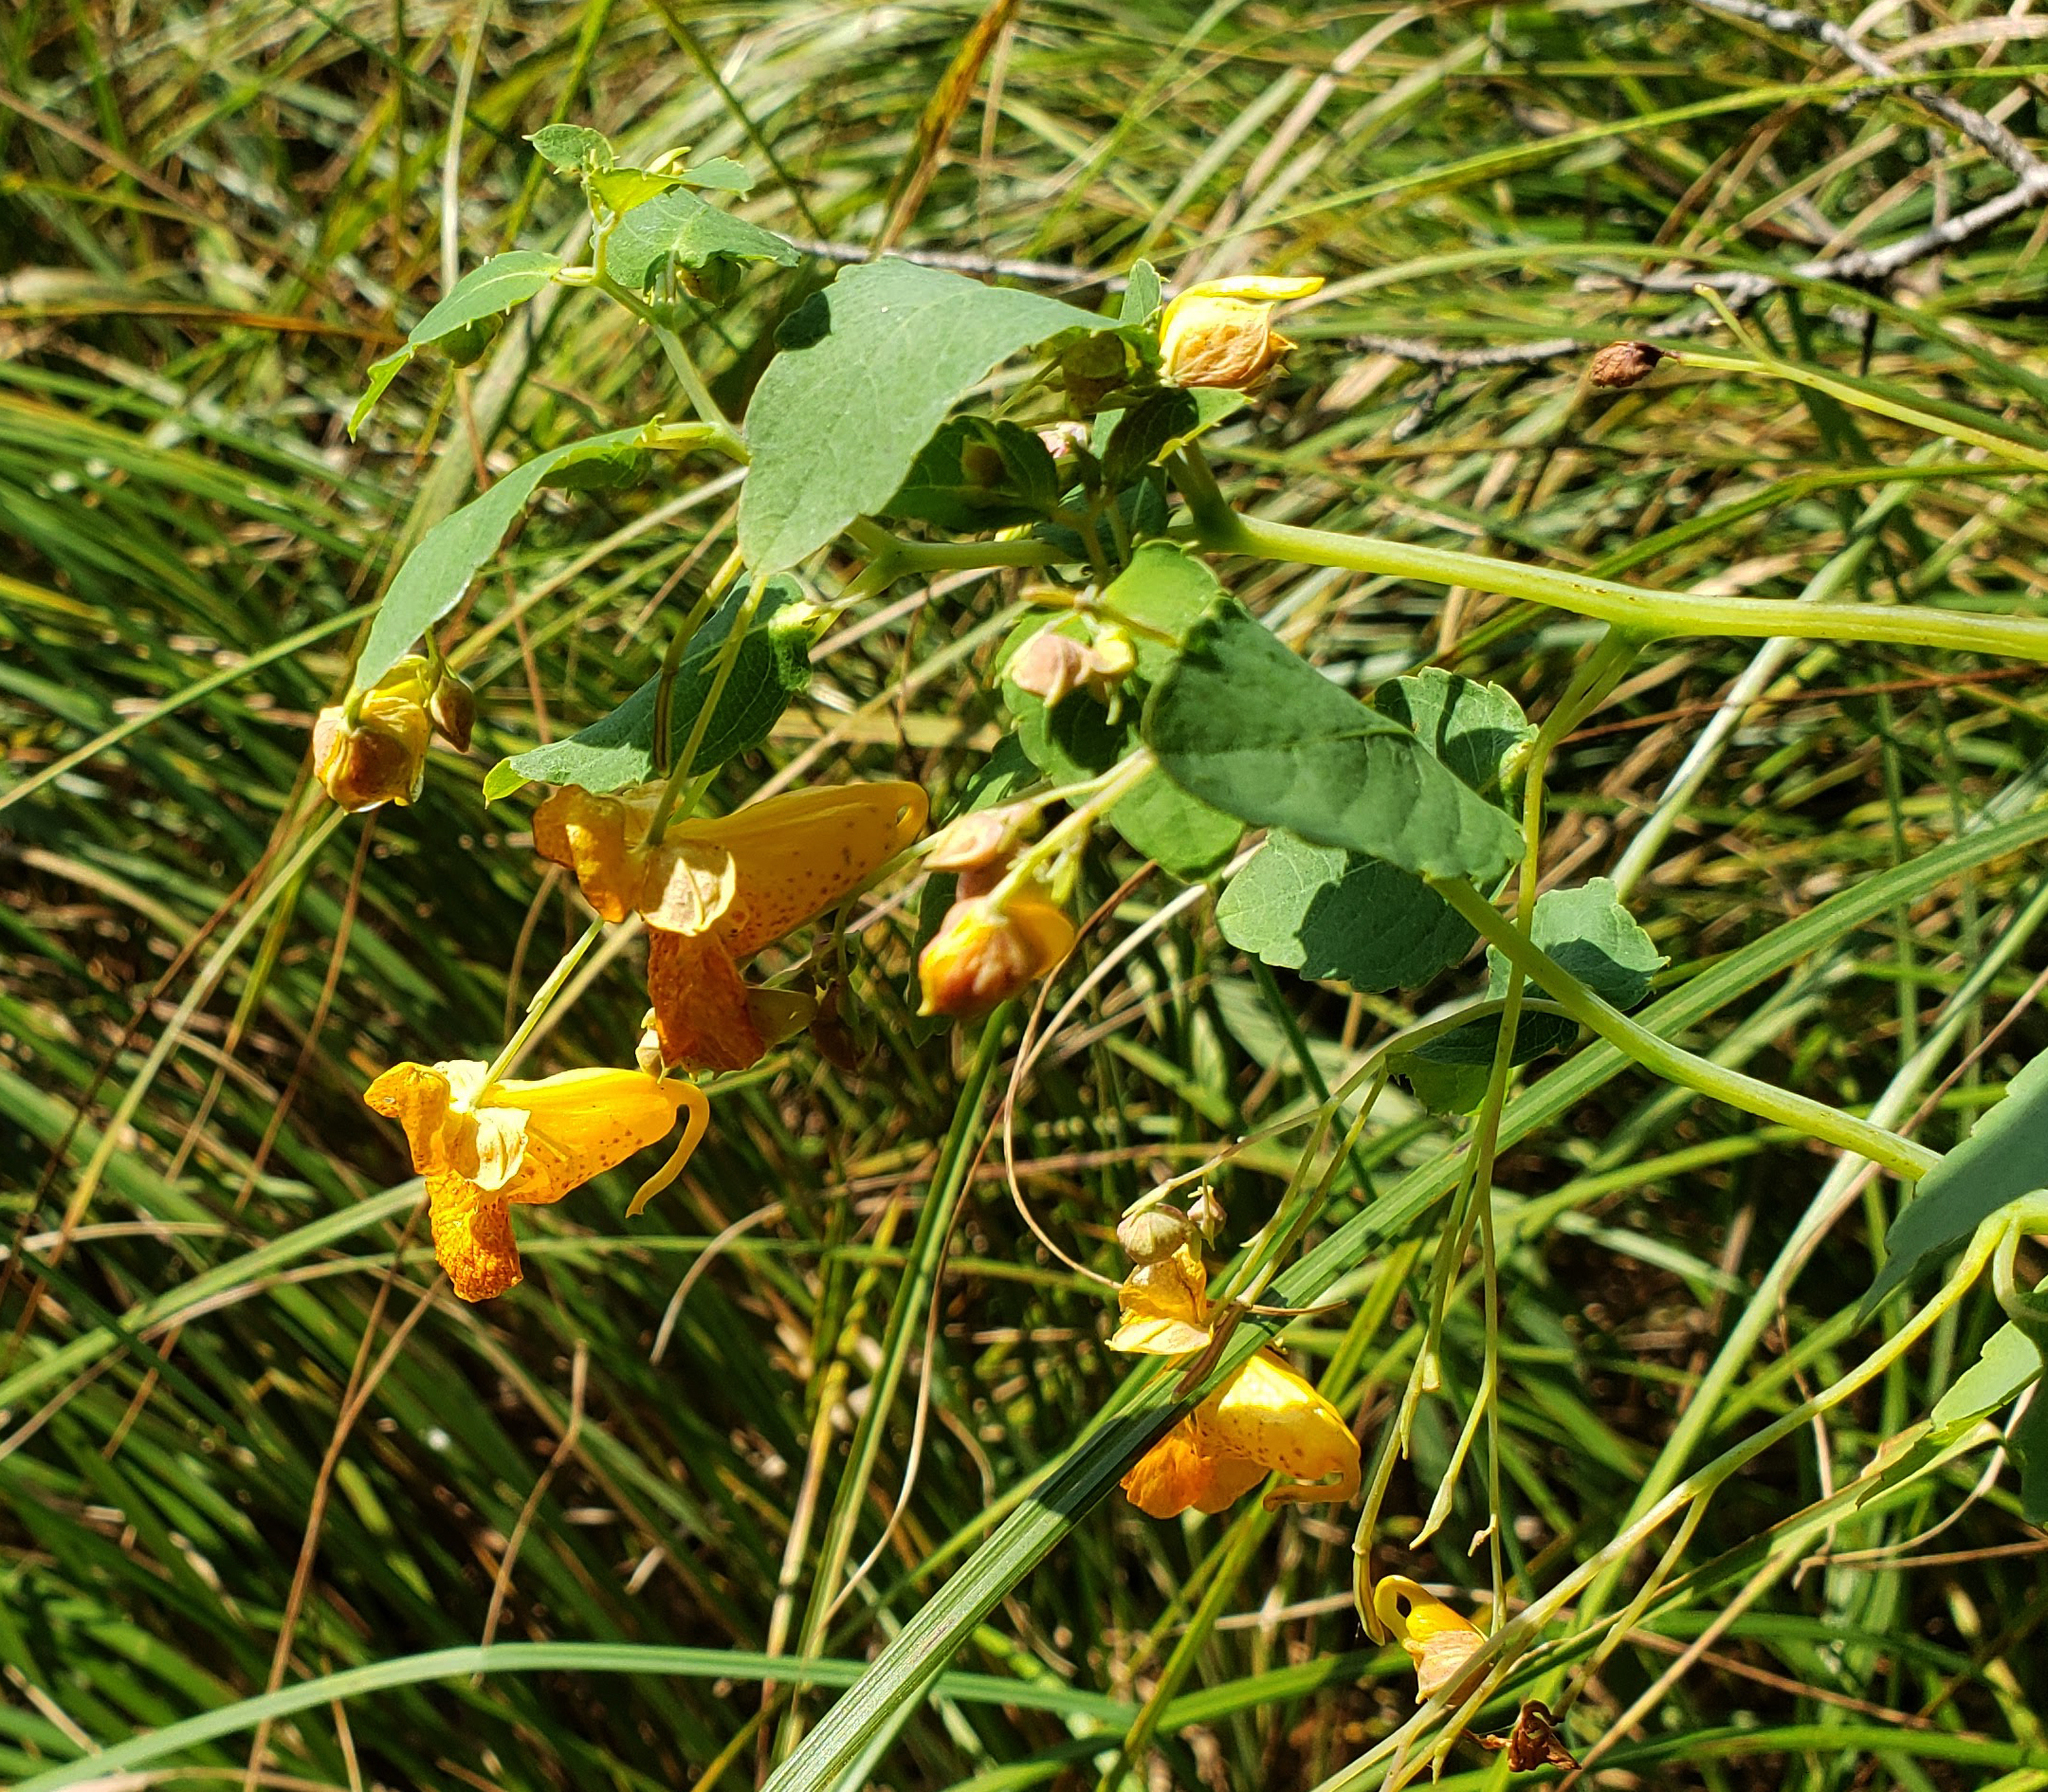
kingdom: Plantae
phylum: Tracheophyta
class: Magnoliopsida
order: Ericales
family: Balsaminaceae
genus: Impatiens
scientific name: Impatiens capensis
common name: Orange balsam
